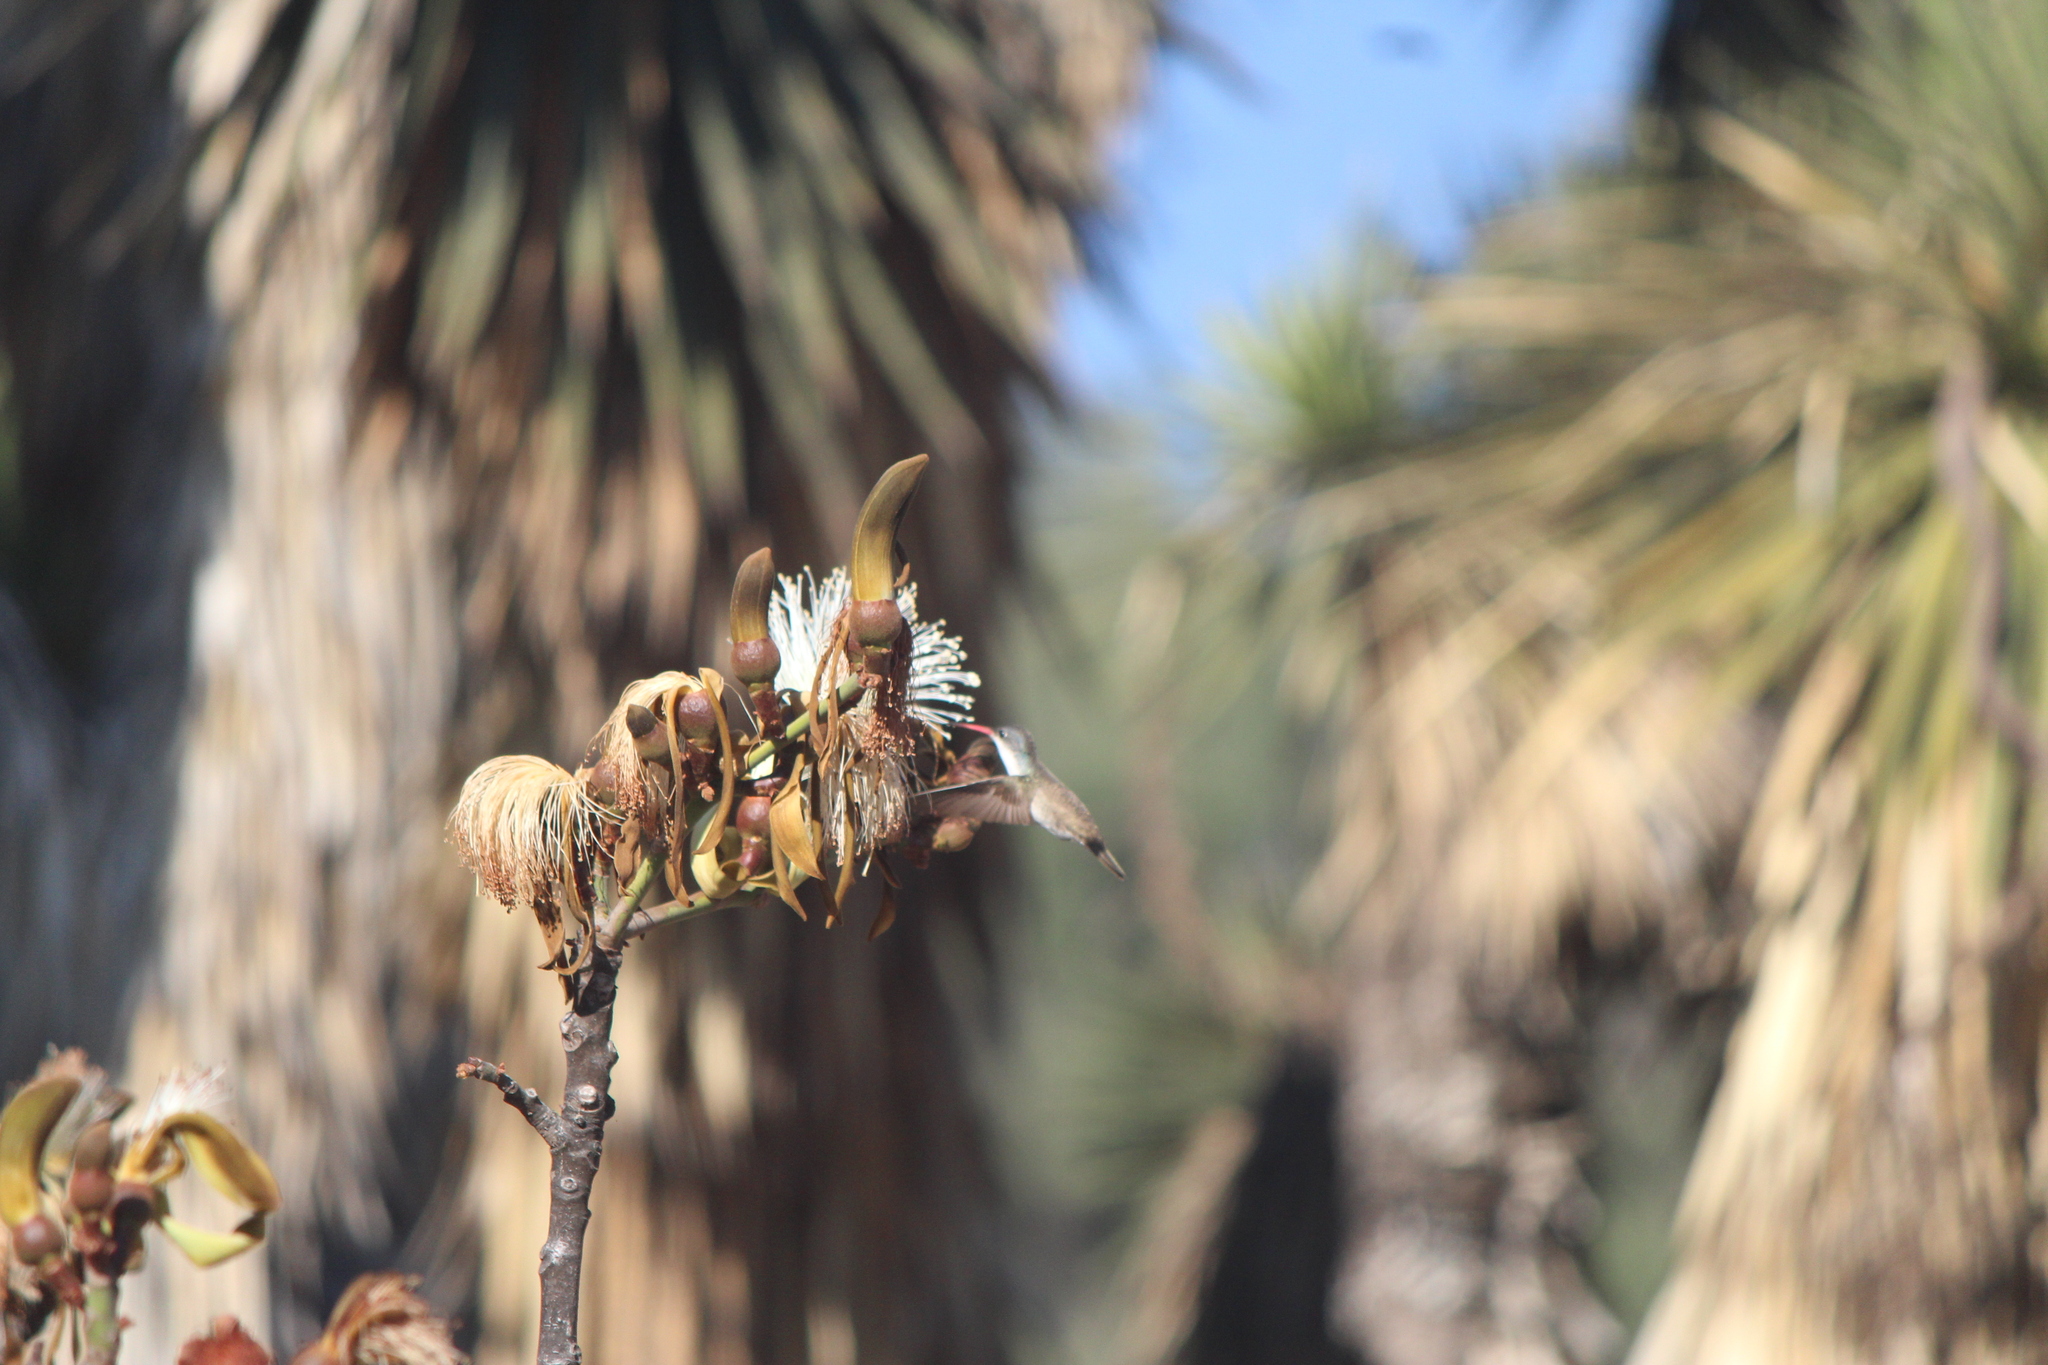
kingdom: Animalia
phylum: Chordata
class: Aves
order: Apodiformes
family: Trochilidae
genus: Leucolia
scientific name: Leucolia violiceps
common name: Violet-crowned hummingbird
